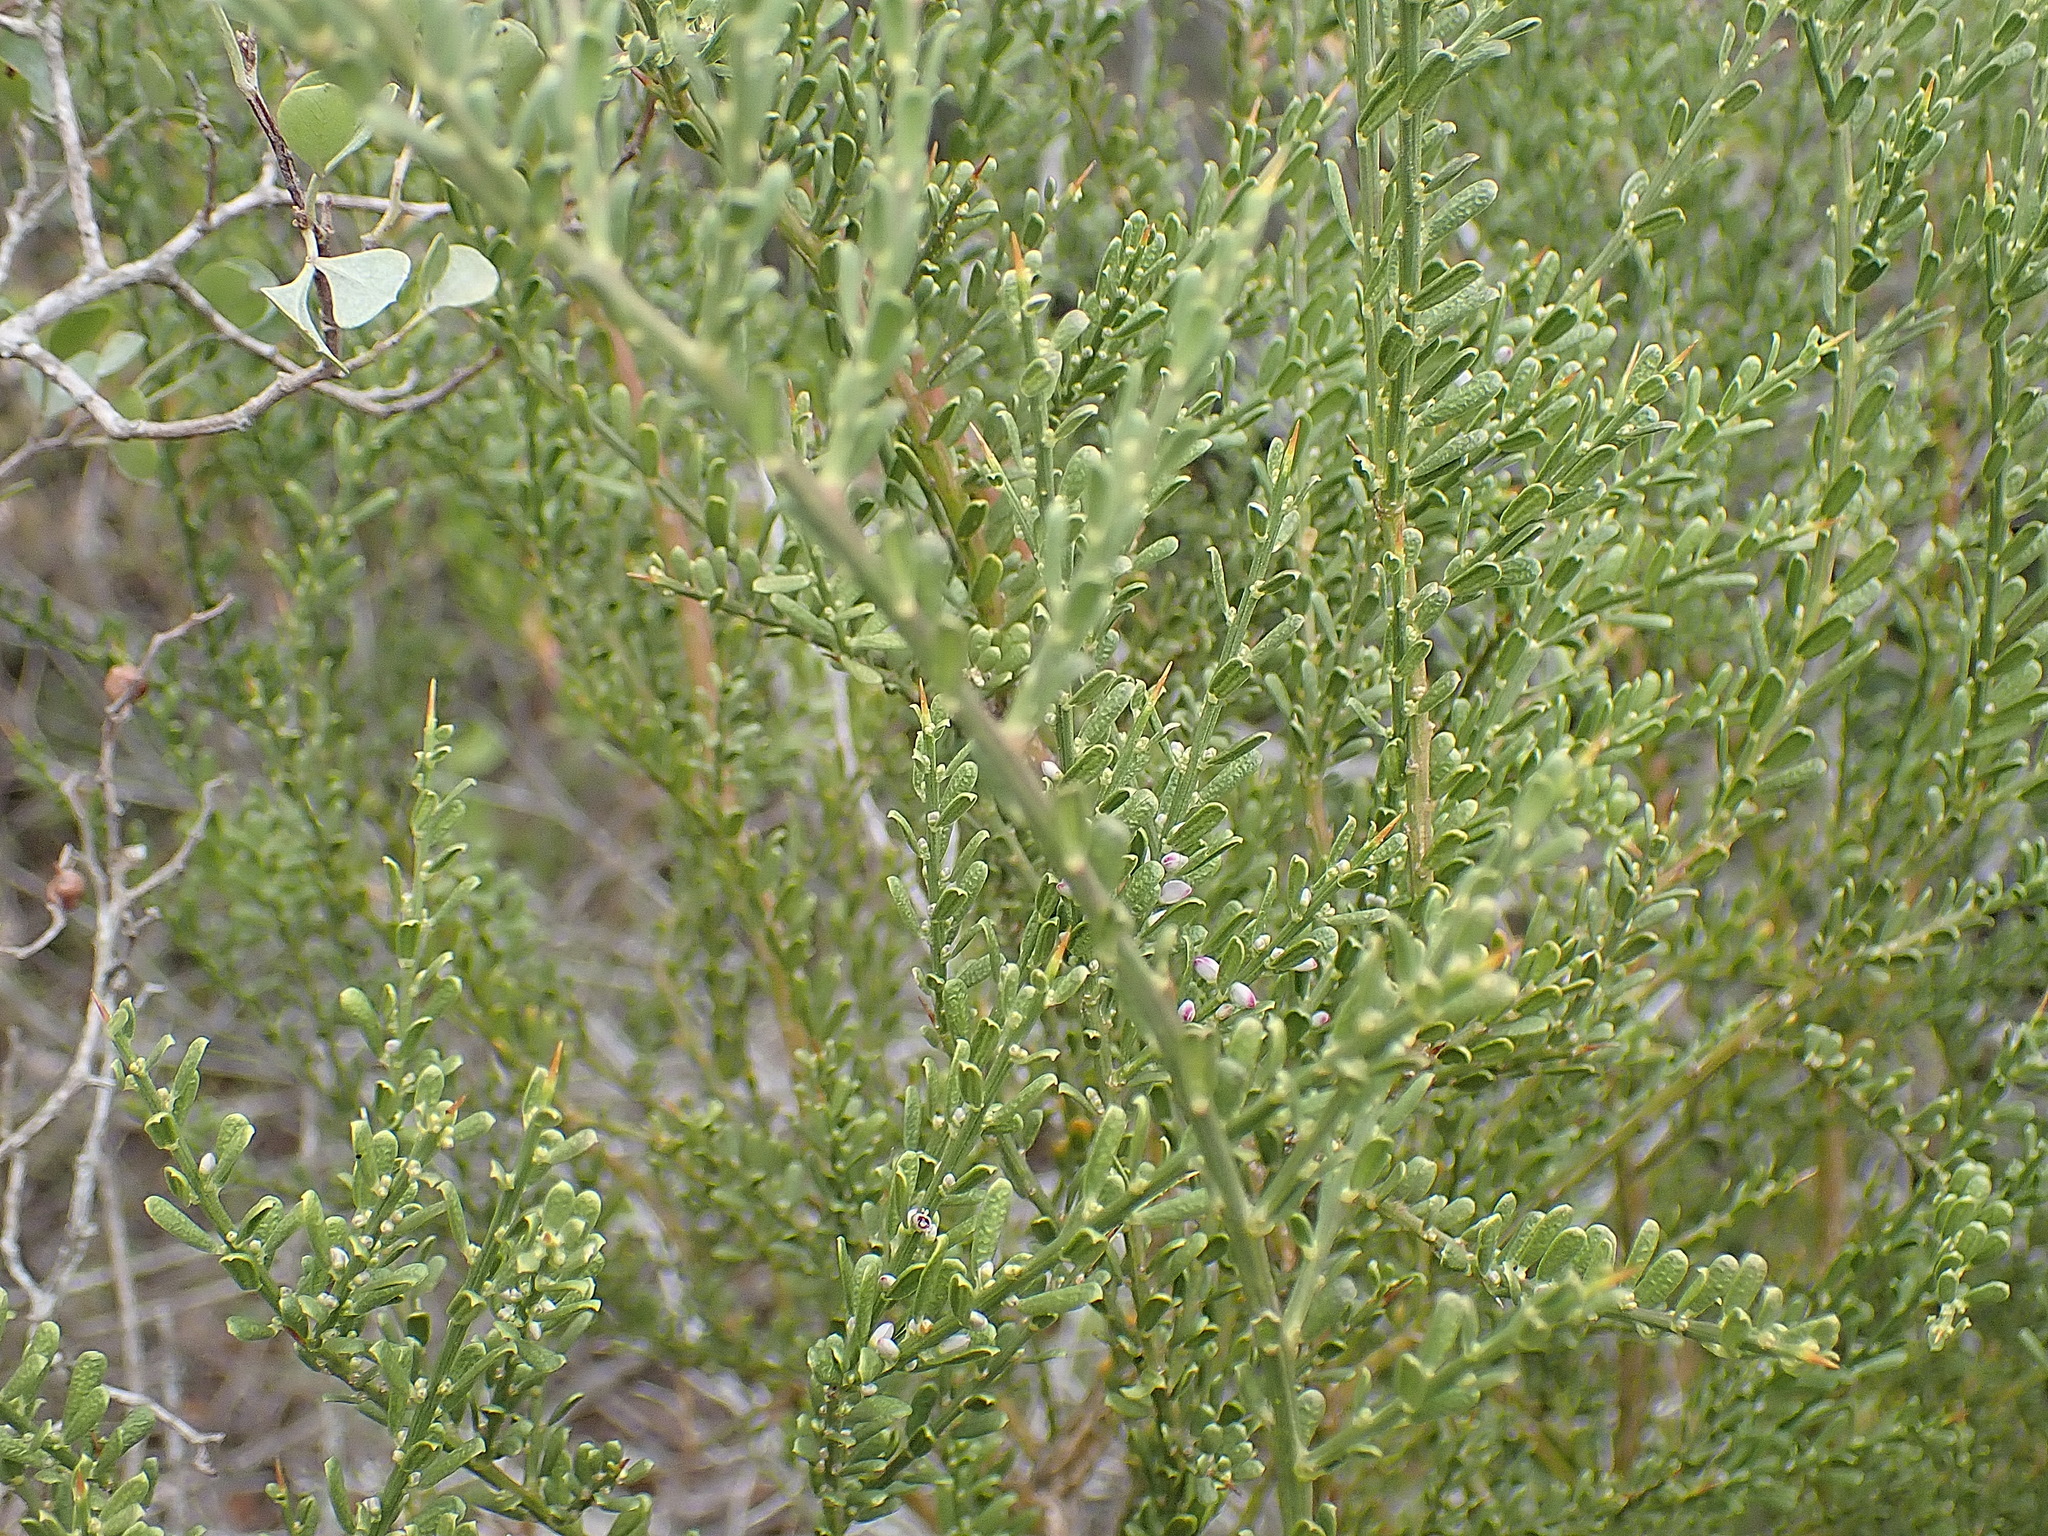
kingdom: Plantae
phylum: Tracheophyta
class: Magnoliopsida
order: Fabales
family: Polygalaceae
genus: Muraltia
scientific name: Muraltia spinosa
